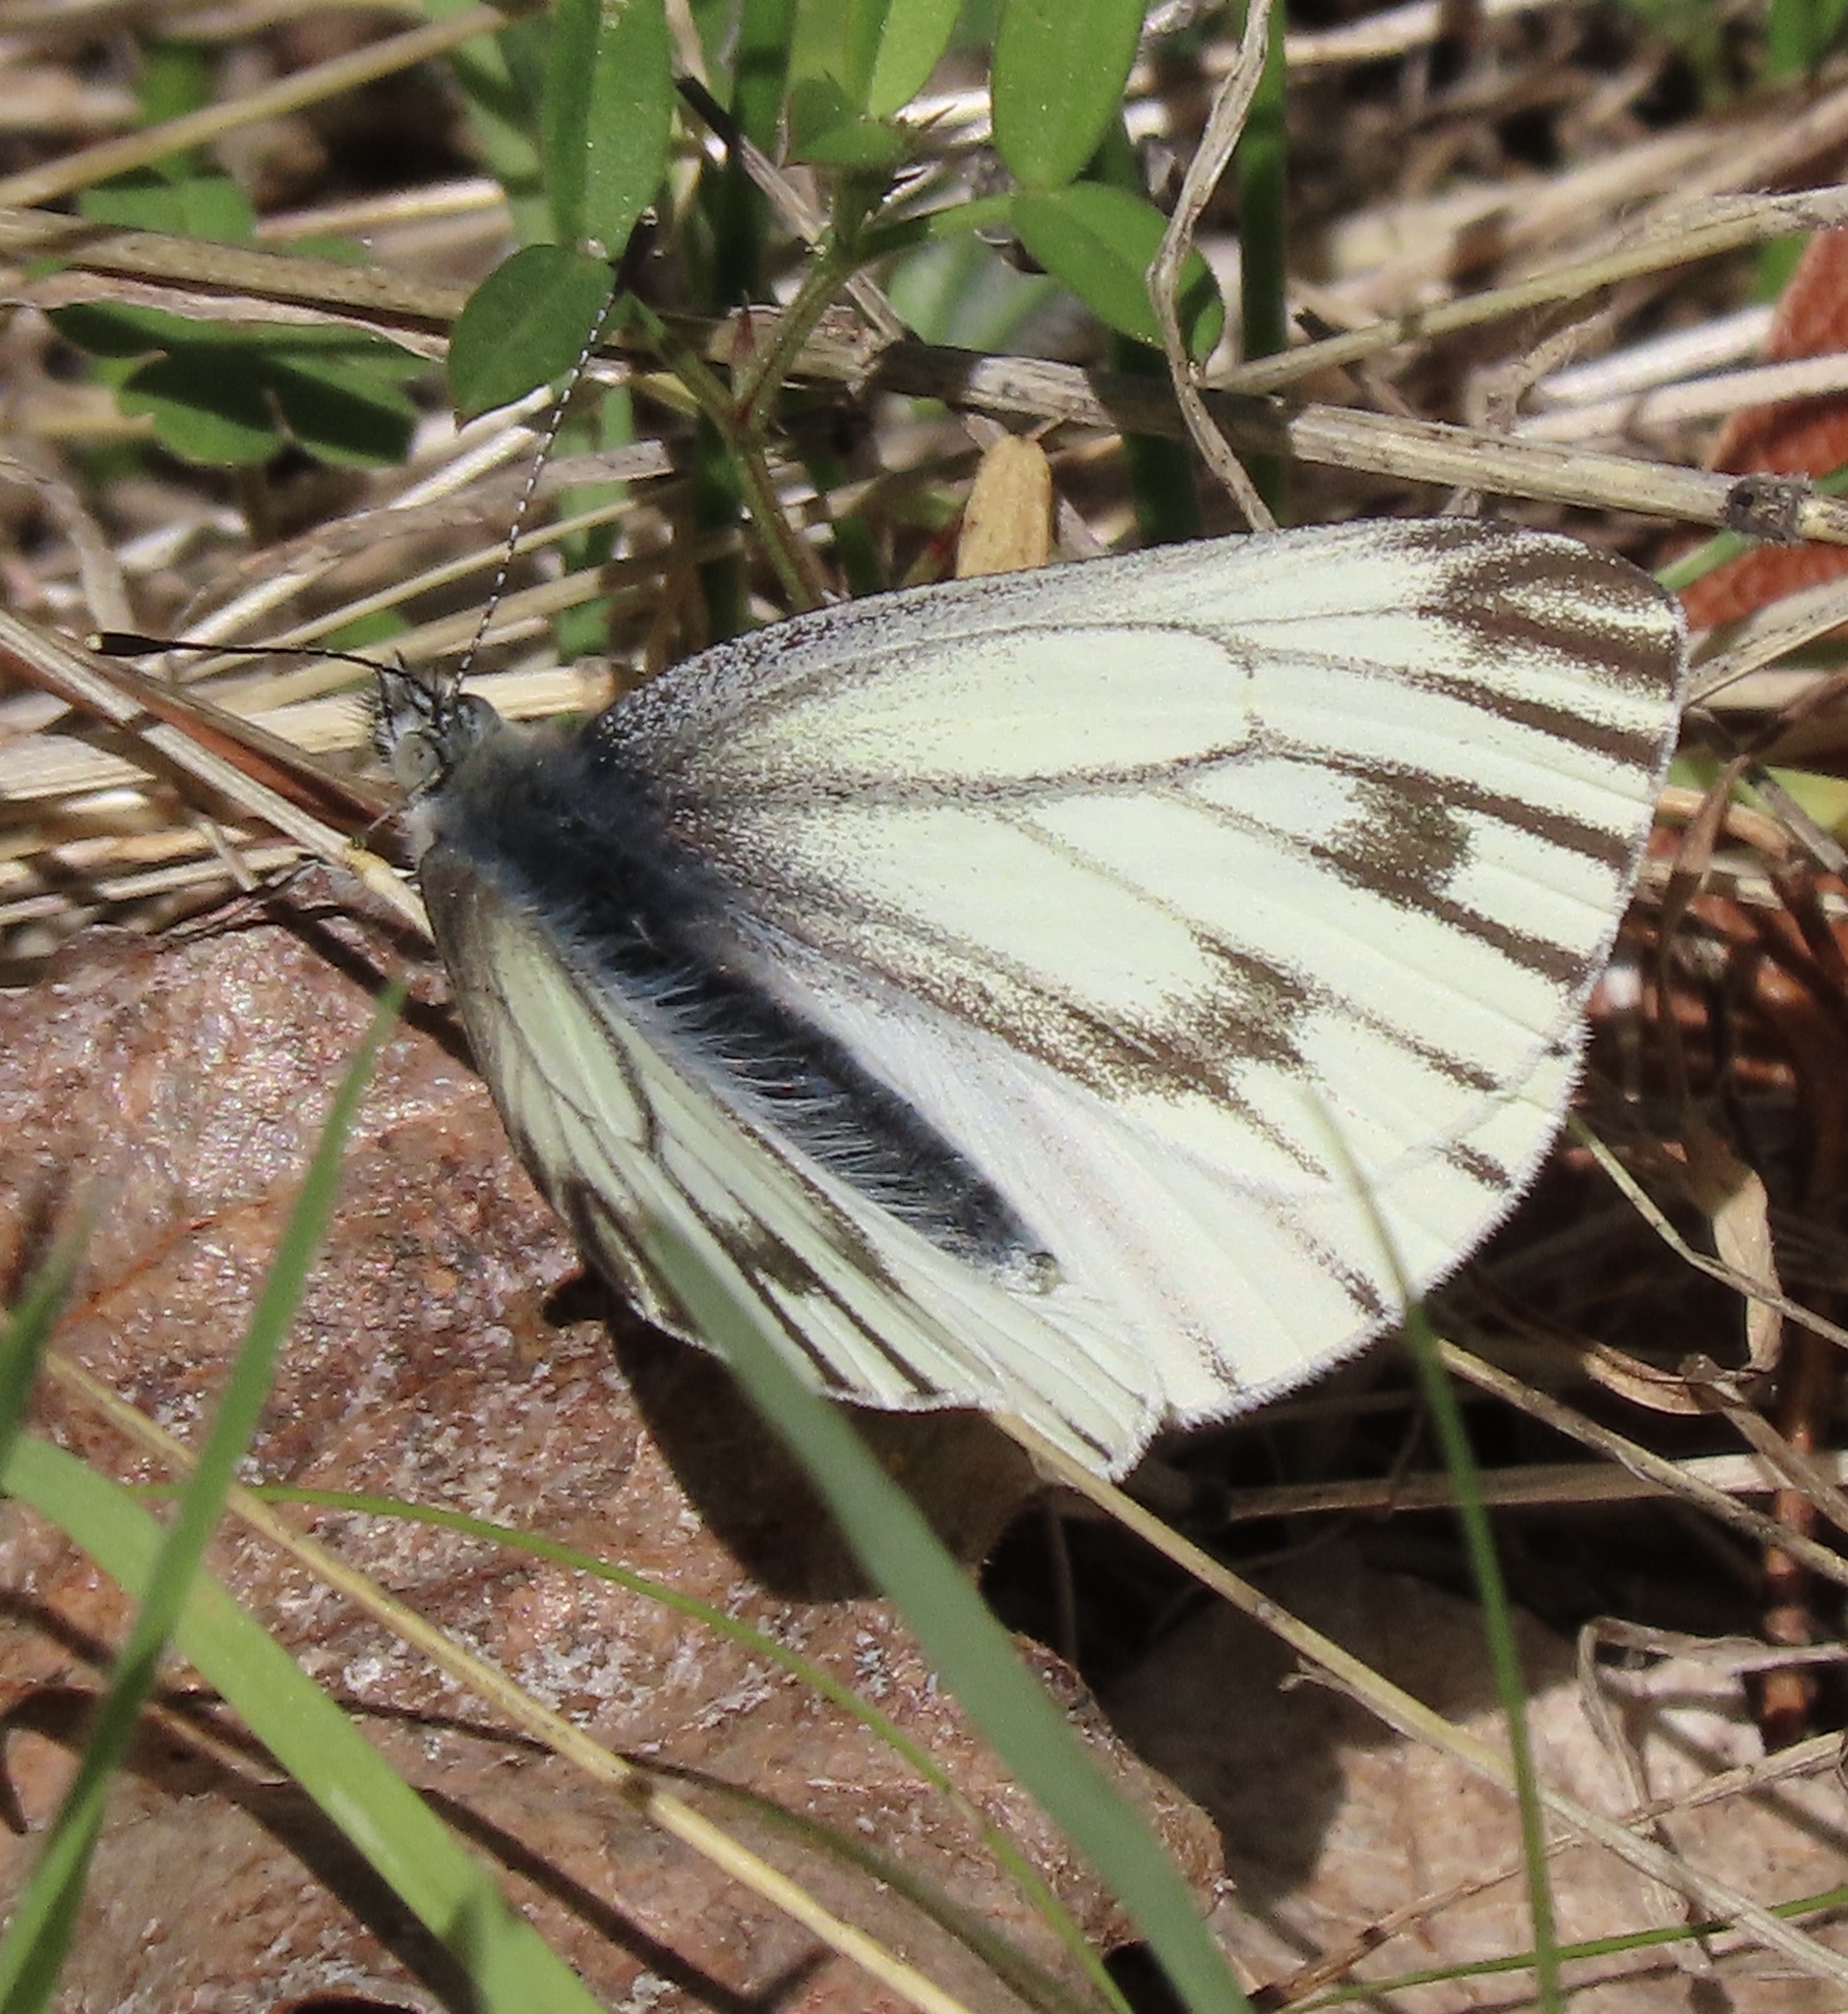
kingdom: Animalia
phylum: Arthropoda
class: Insecta
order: Lepidoptera
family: Pieridae
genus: Pieris
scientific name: Pieris marginalis
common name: Margined white
